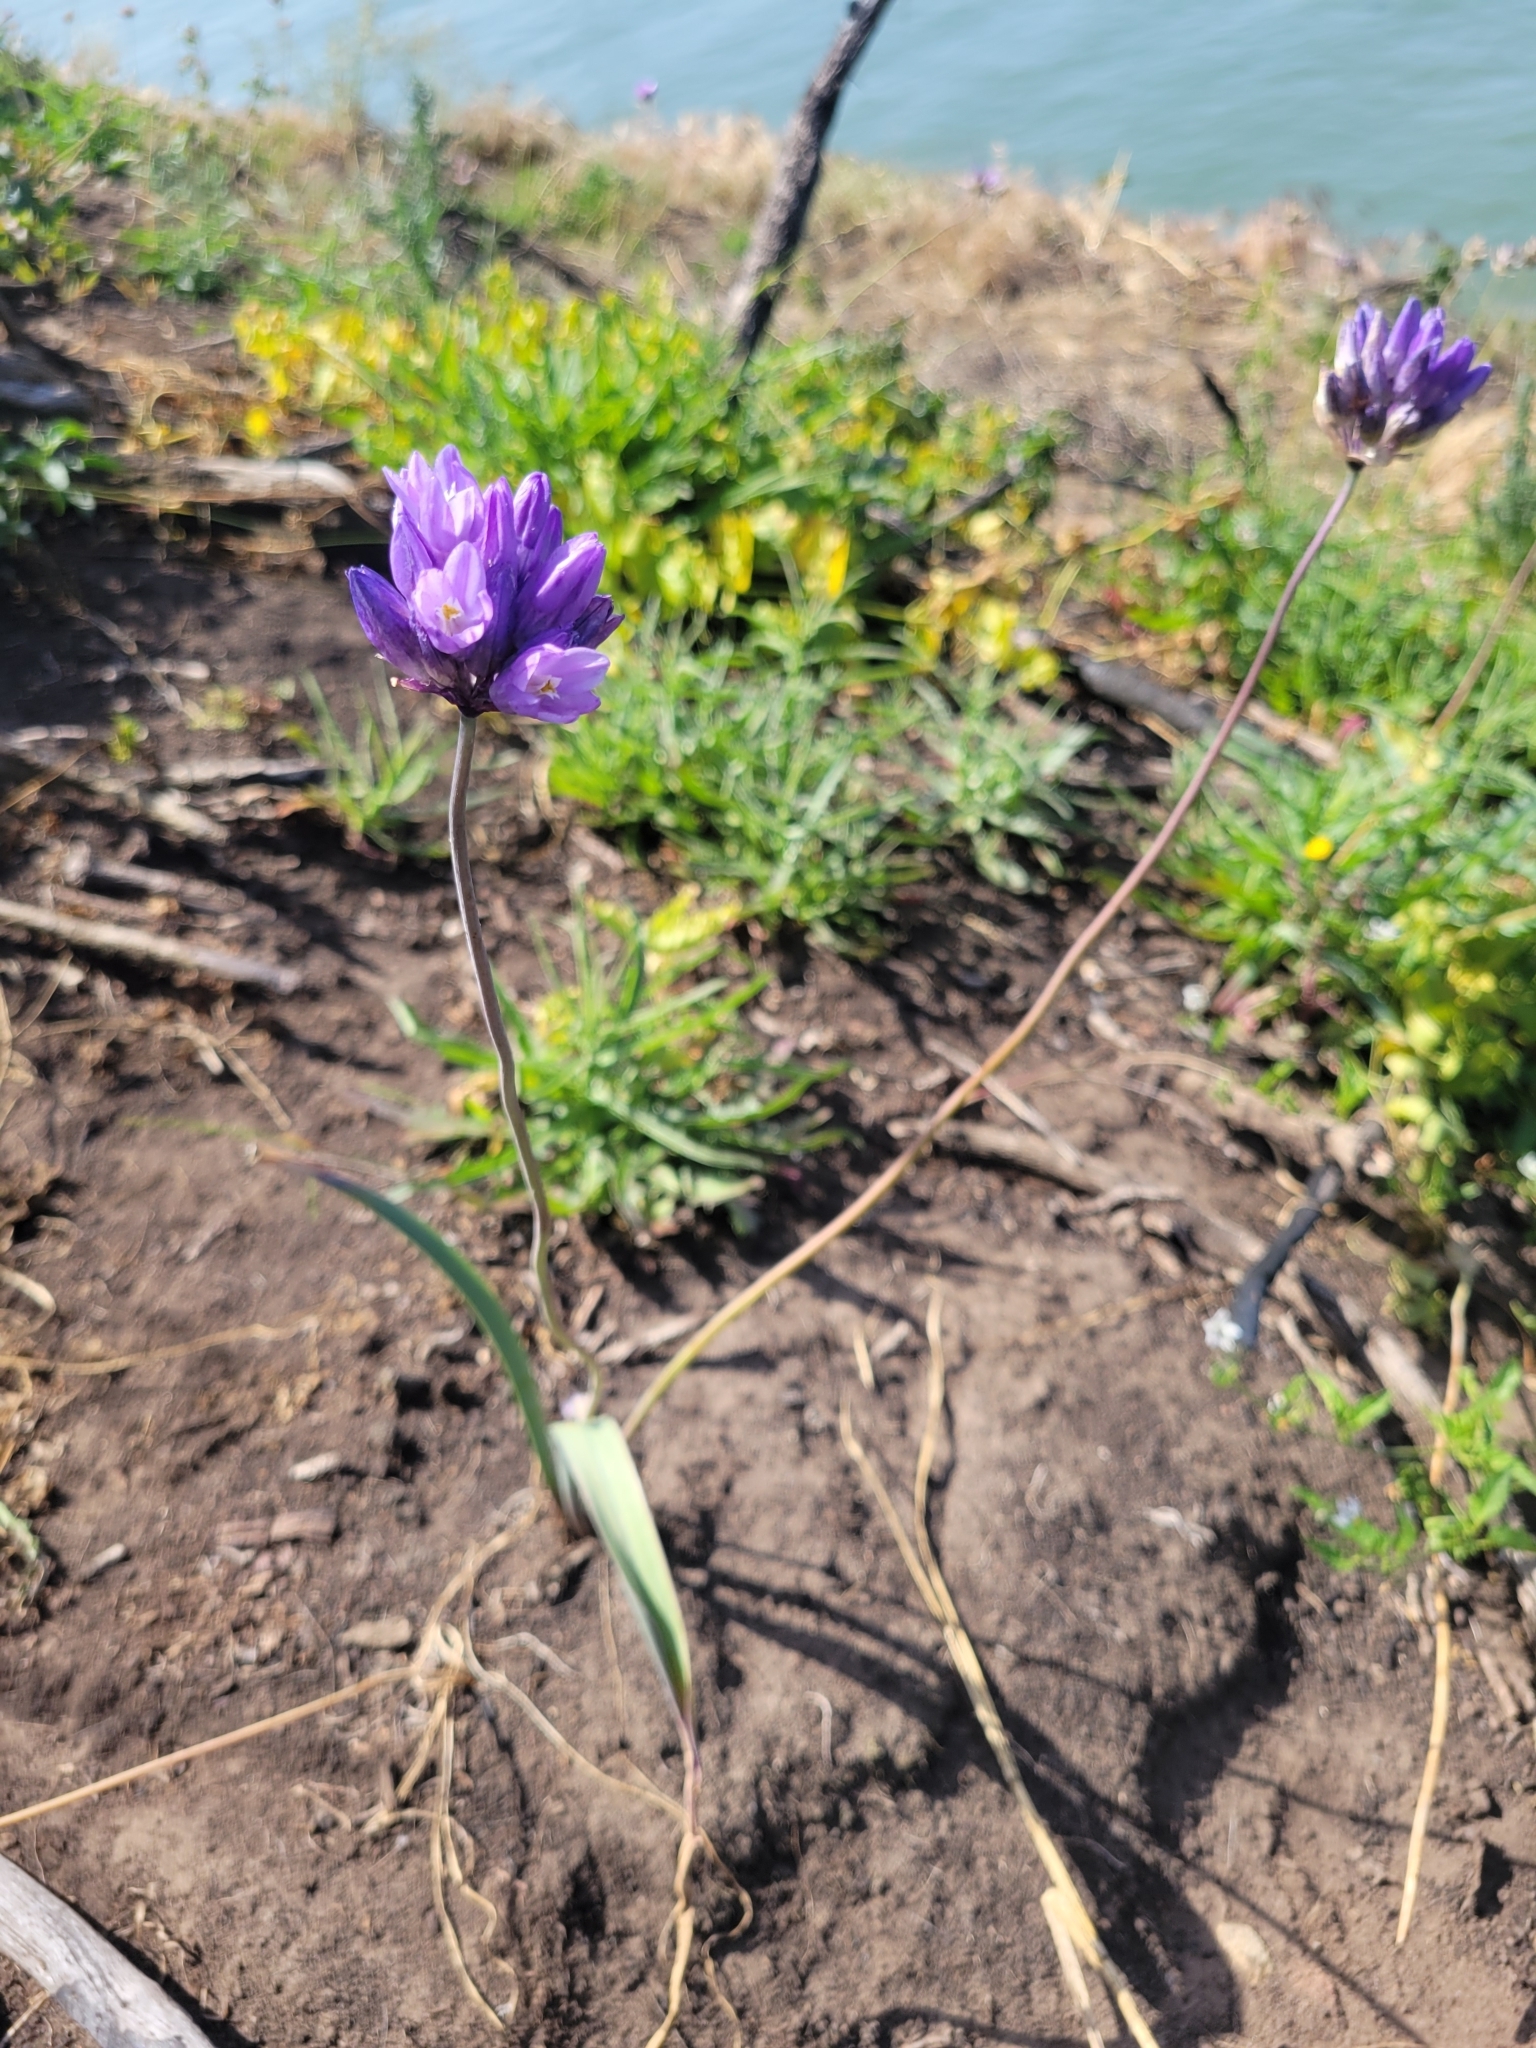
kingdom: Plantae
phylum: Tracheophyta
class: Liliopsida
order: Asparagales
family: Asparagaceae
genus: Dipterostemon
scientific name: Dipterostemon capitatus
